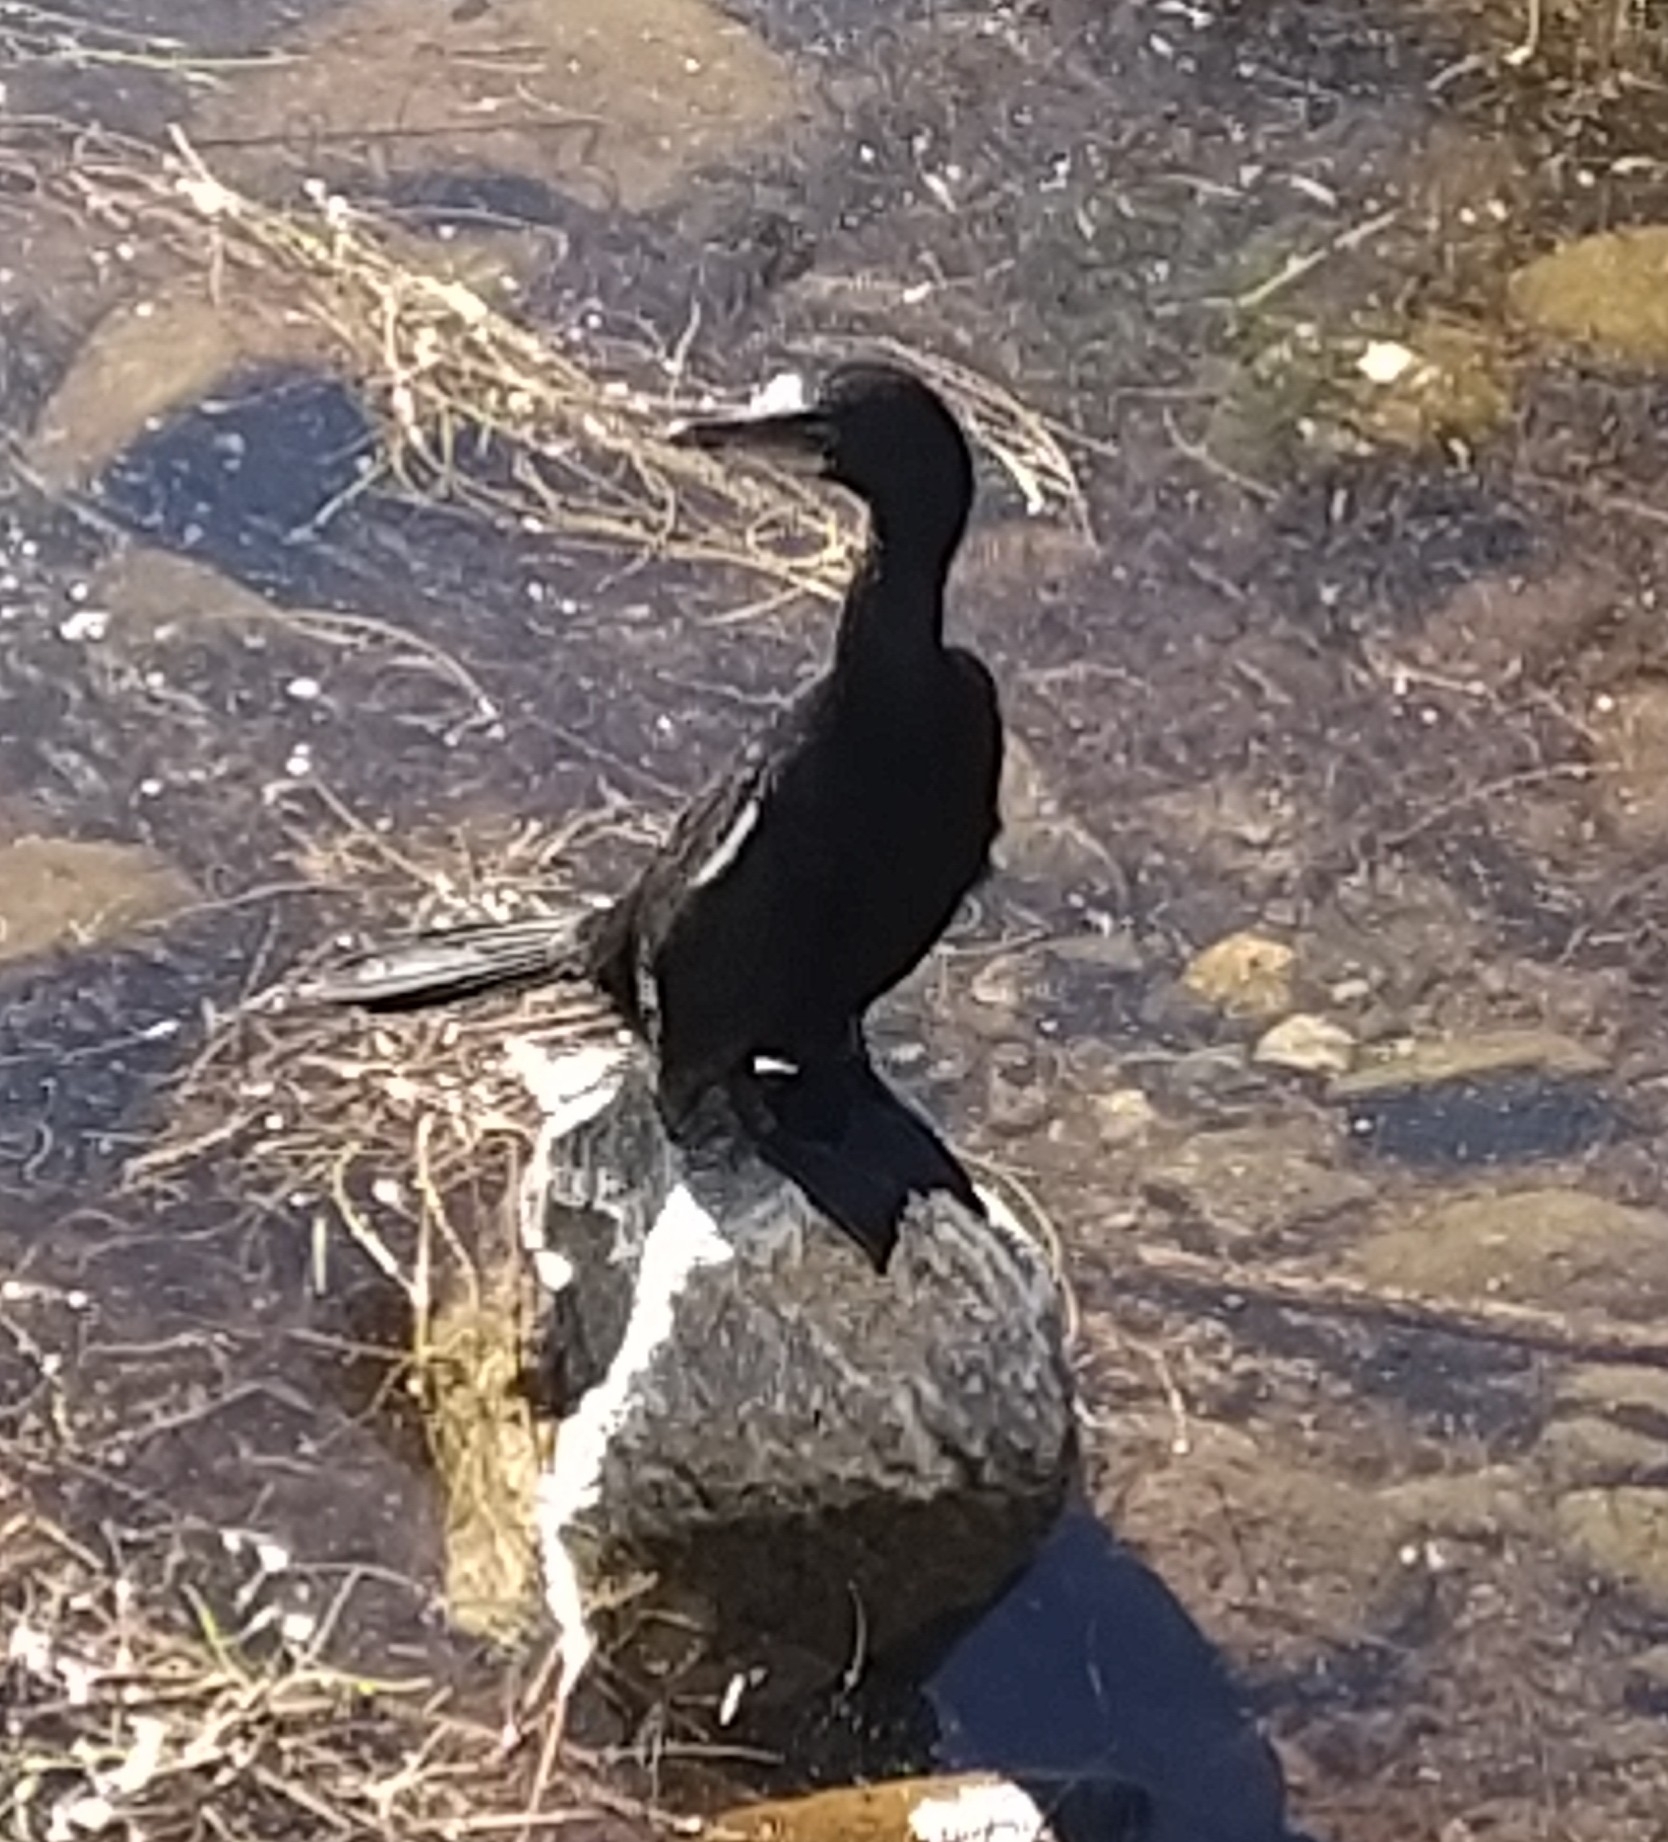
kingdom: Animalia
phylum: Chordata
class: Aves
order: Suliformes
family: Phalacrocoracidae
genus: Microcarbo
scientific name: Microcarbo melanoleucos
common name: Little pied cormorant
